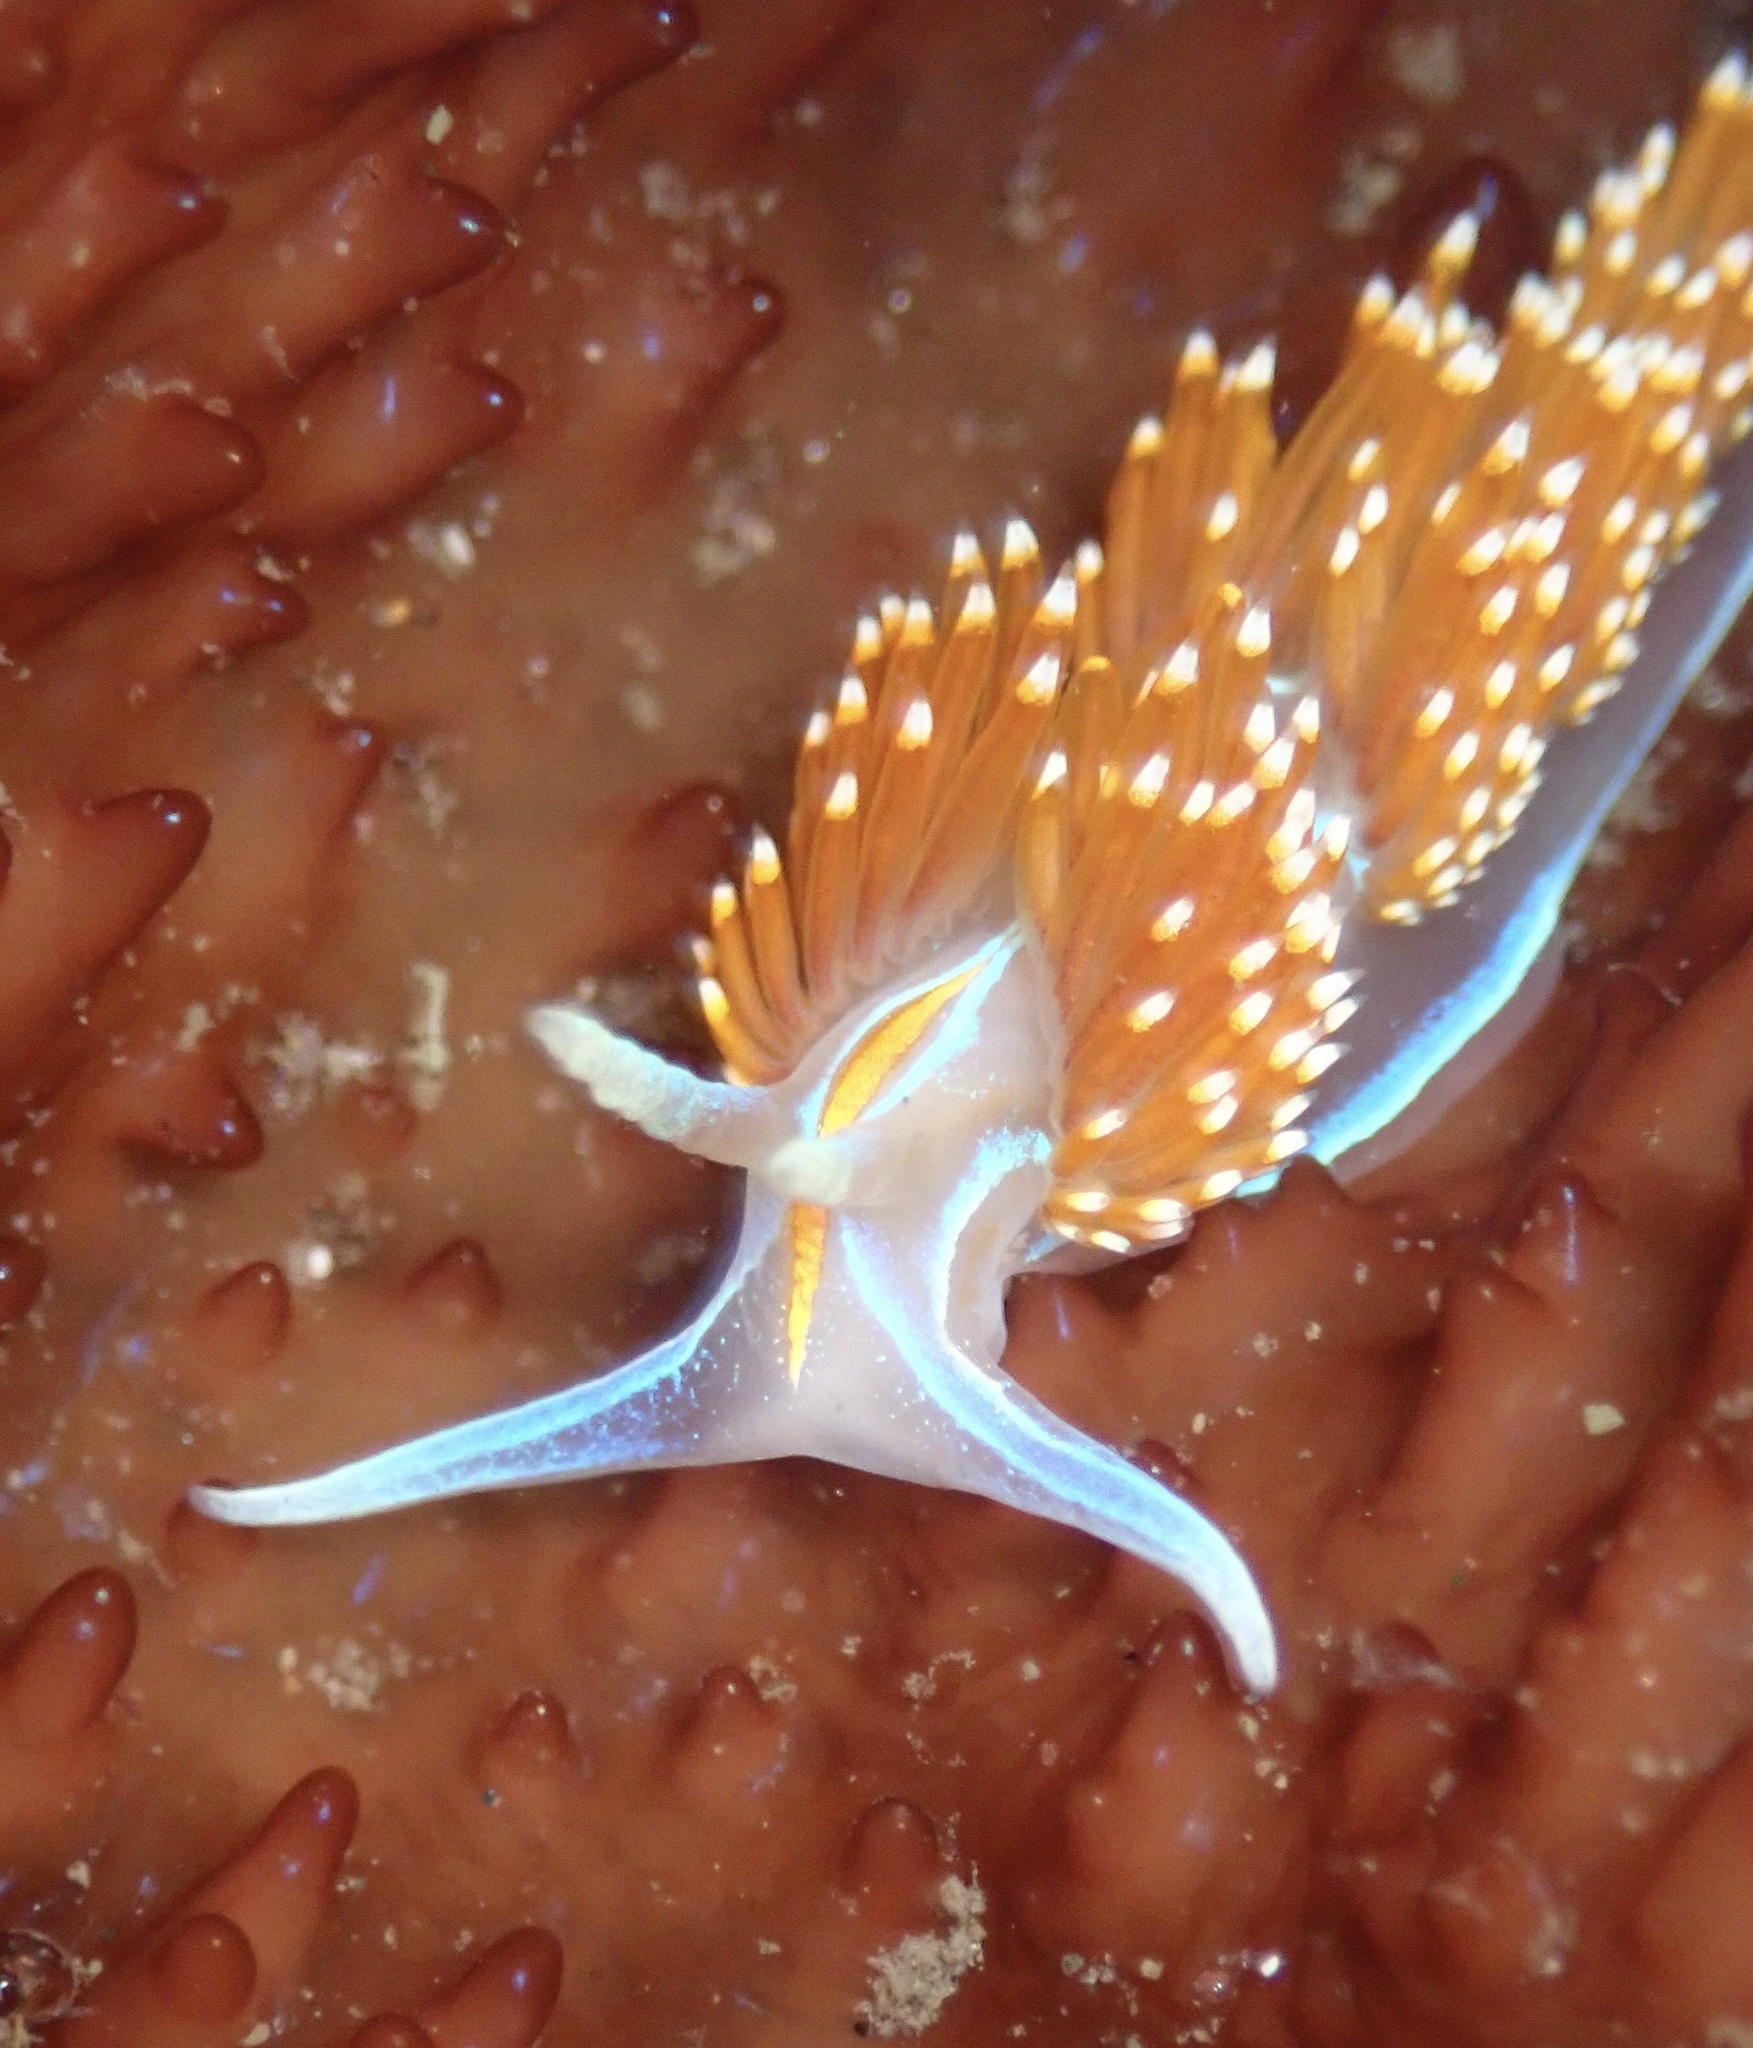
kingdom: Animalia
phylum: Mollusca
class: Gastropoda
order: Nudibranchia
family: Myrrhinidae
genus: Hermissenda
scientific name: Hermissenda opalescens
